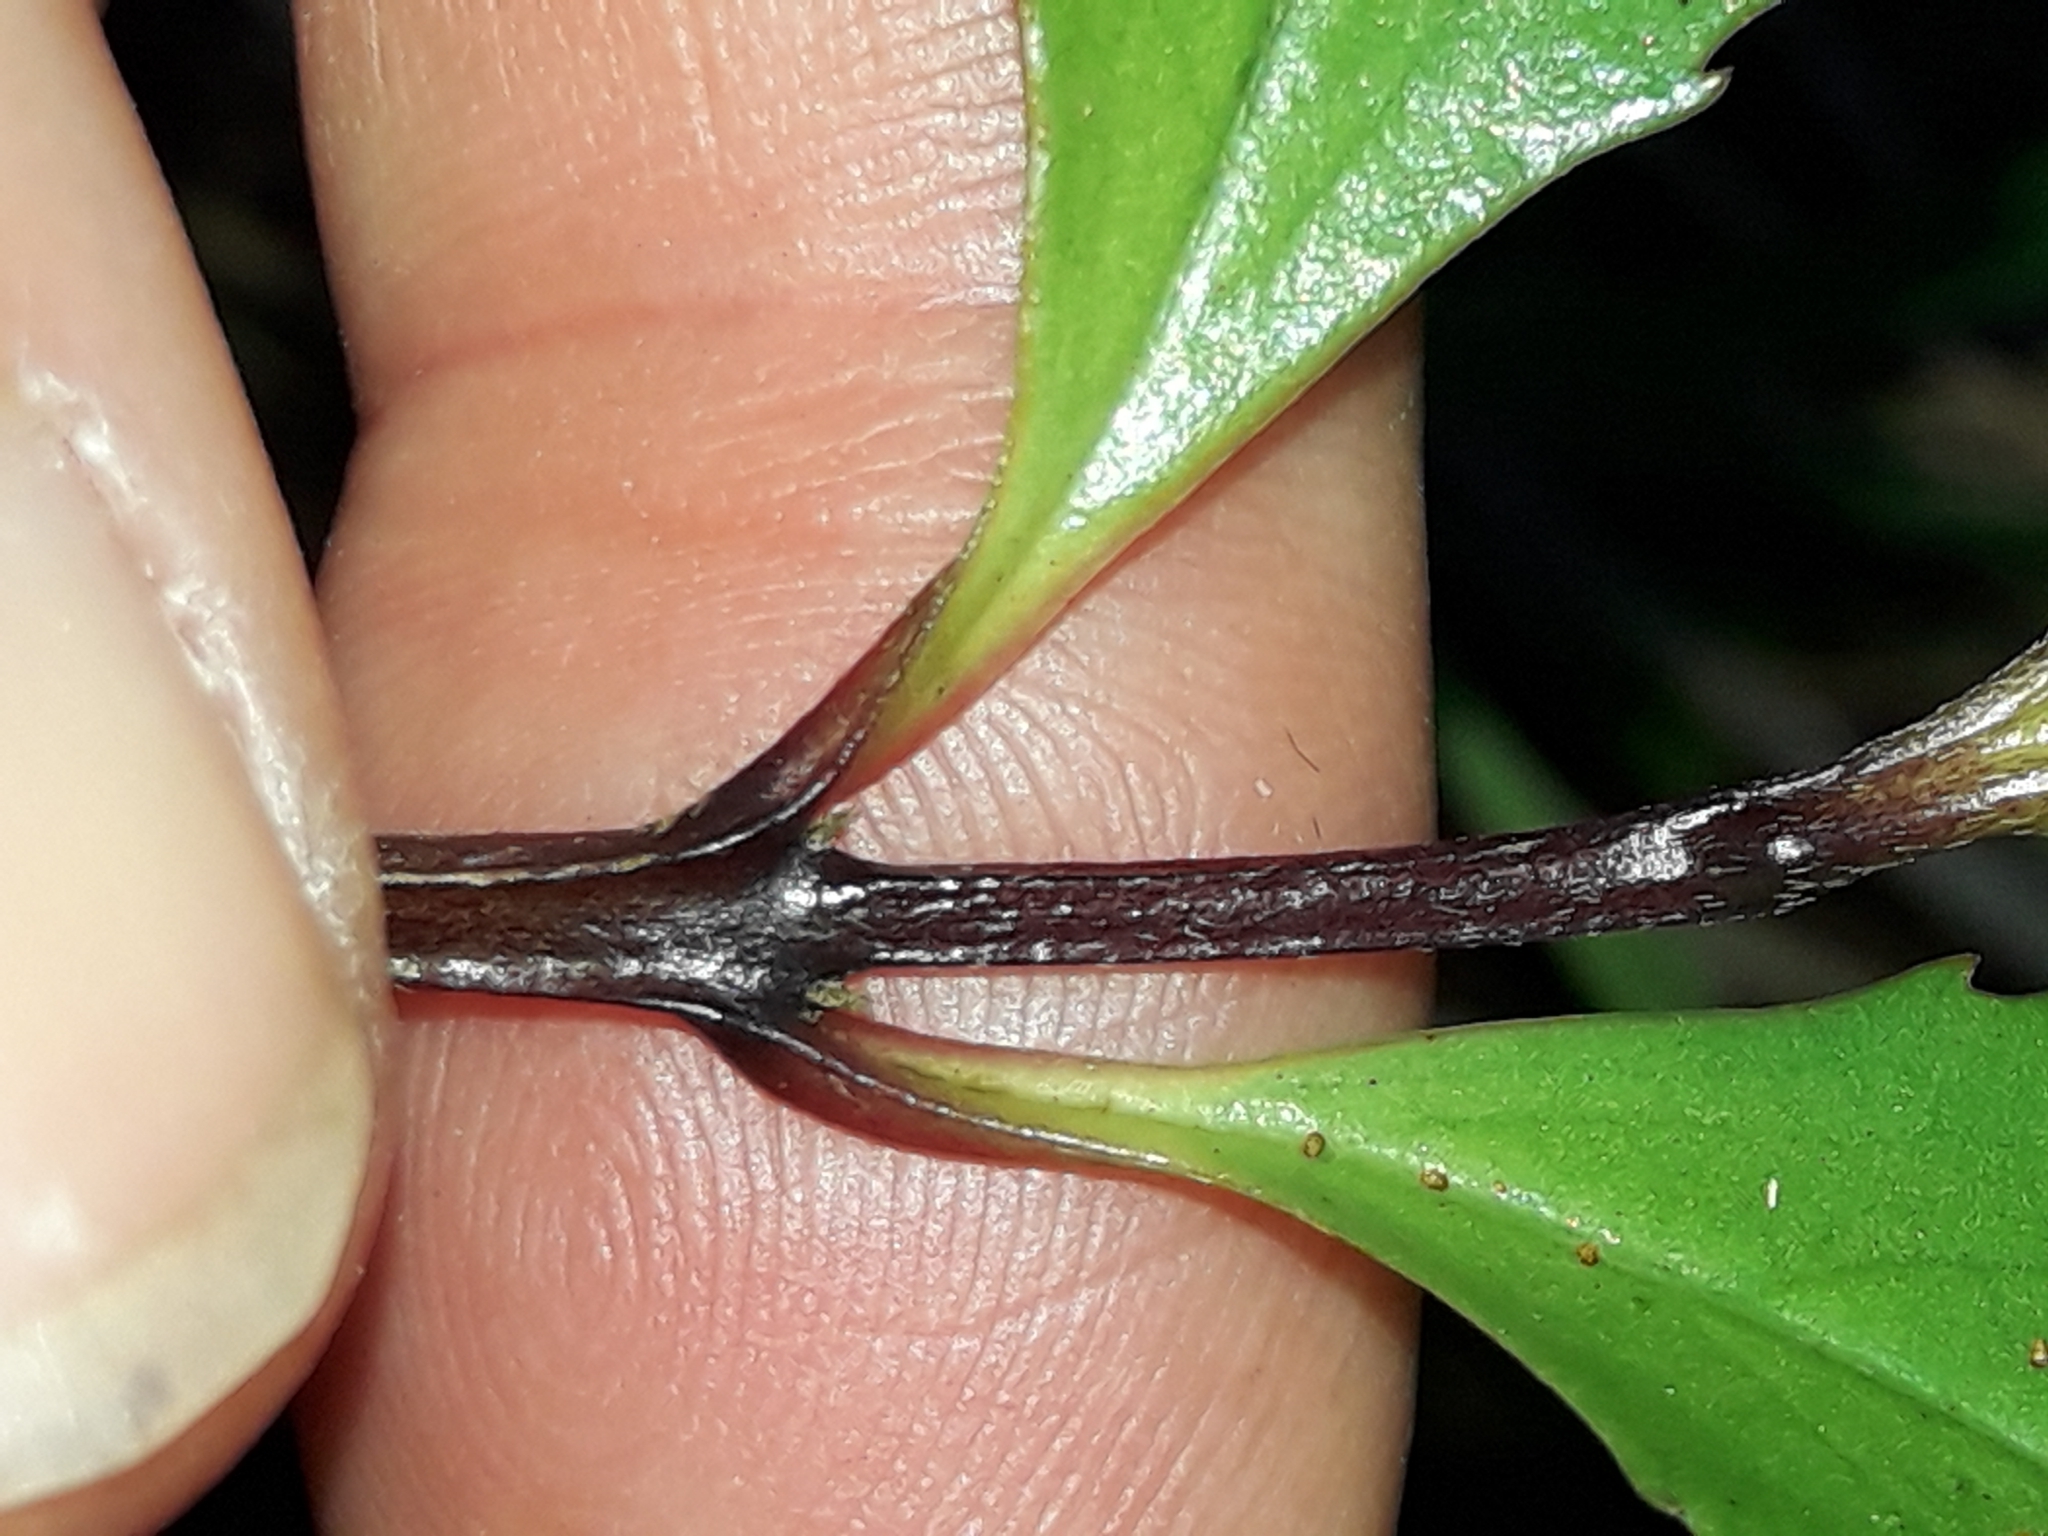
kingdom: Plantae
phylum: Tracheophyta
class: Magnoliopsida
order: Laurales
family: Atherospermataceae
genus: Laurelia
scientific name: Laurelia novae-zelandiae
